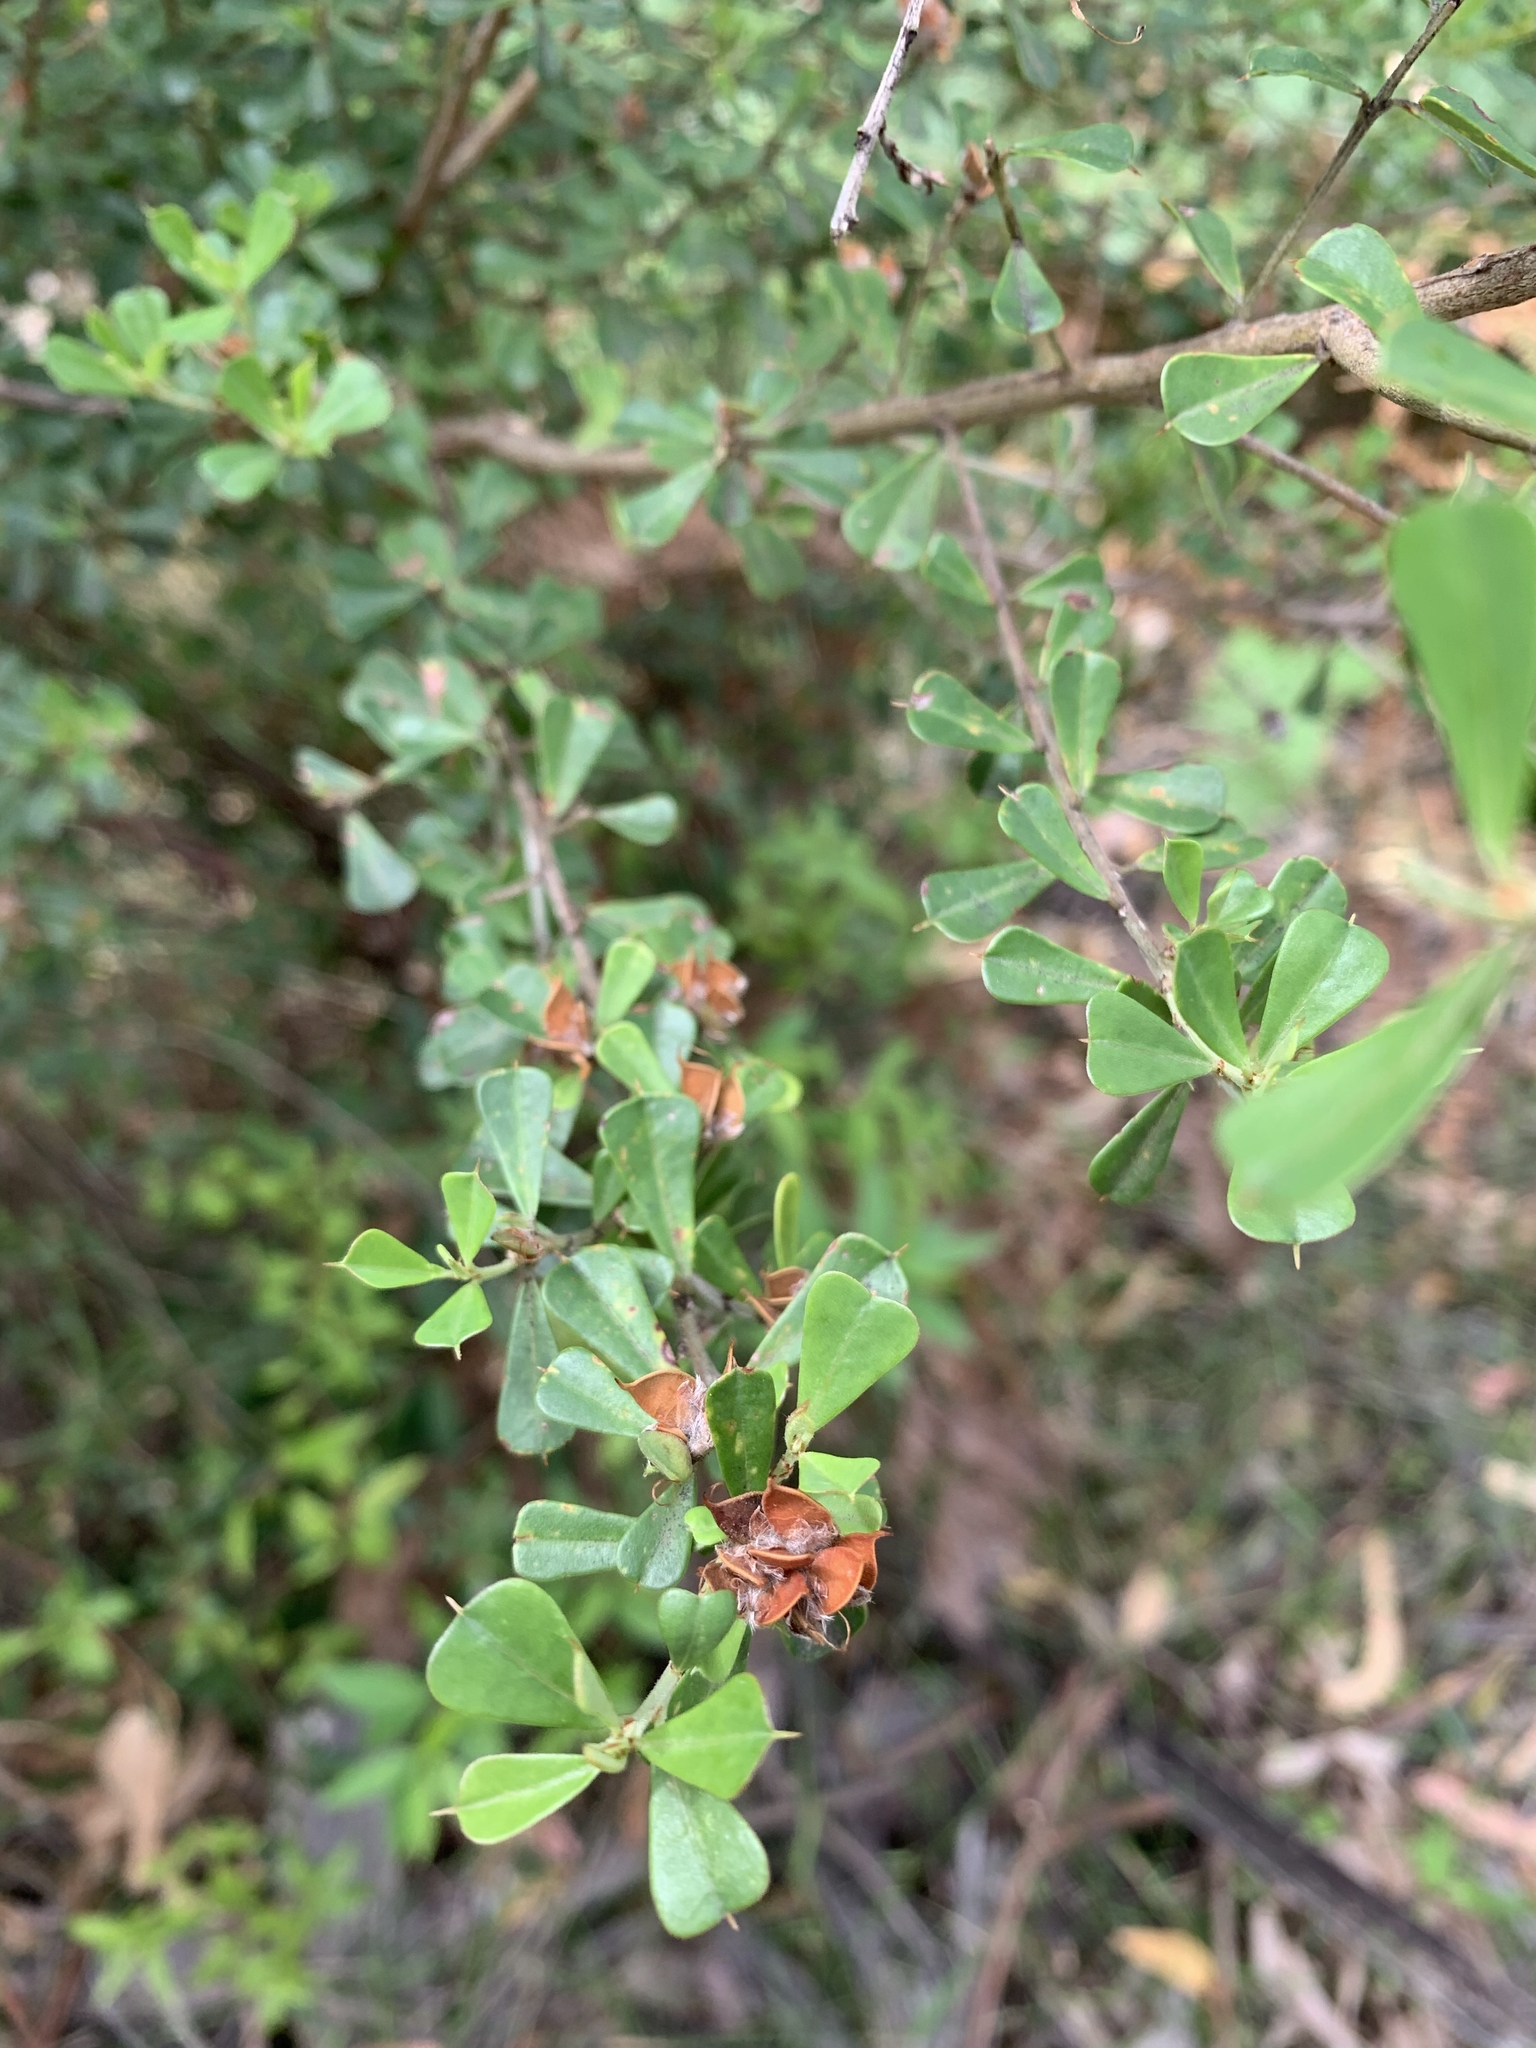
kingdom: Plantae
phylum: Tracheophyta
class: Magnoliopsida
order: Fabales
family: Fabaceae
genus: Pultenaea
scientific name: Pultenaea daphnoides
